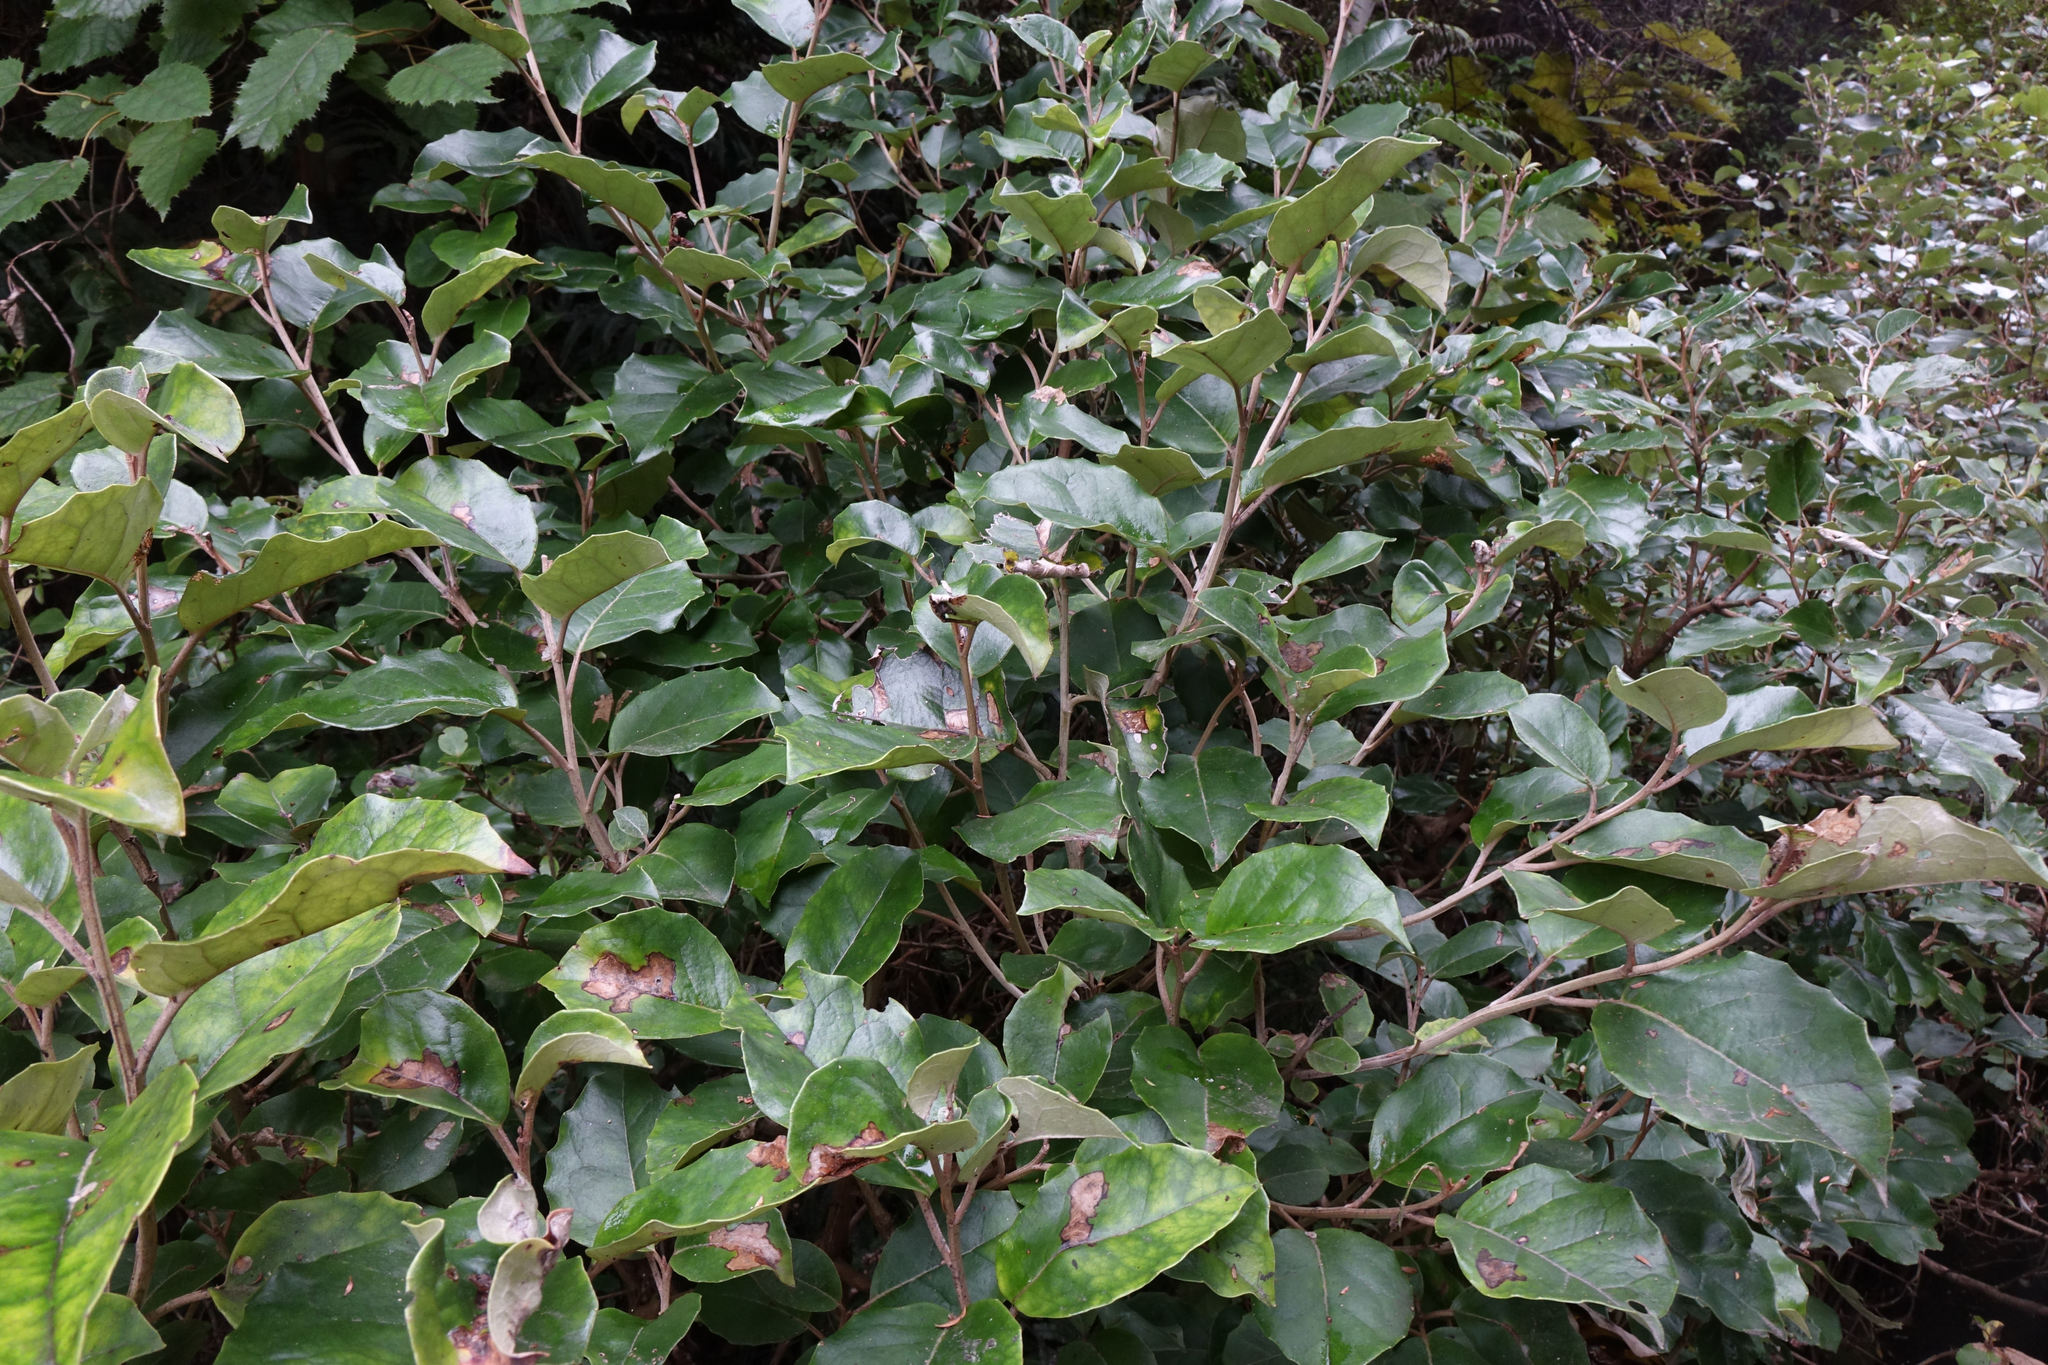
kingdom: Plantae
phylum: Tracheophyta
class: Magnoliopsida
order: Asterales
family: Asteraceae
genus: Olearia
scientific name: Olearia arborescens
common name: Glossy tree daisy
